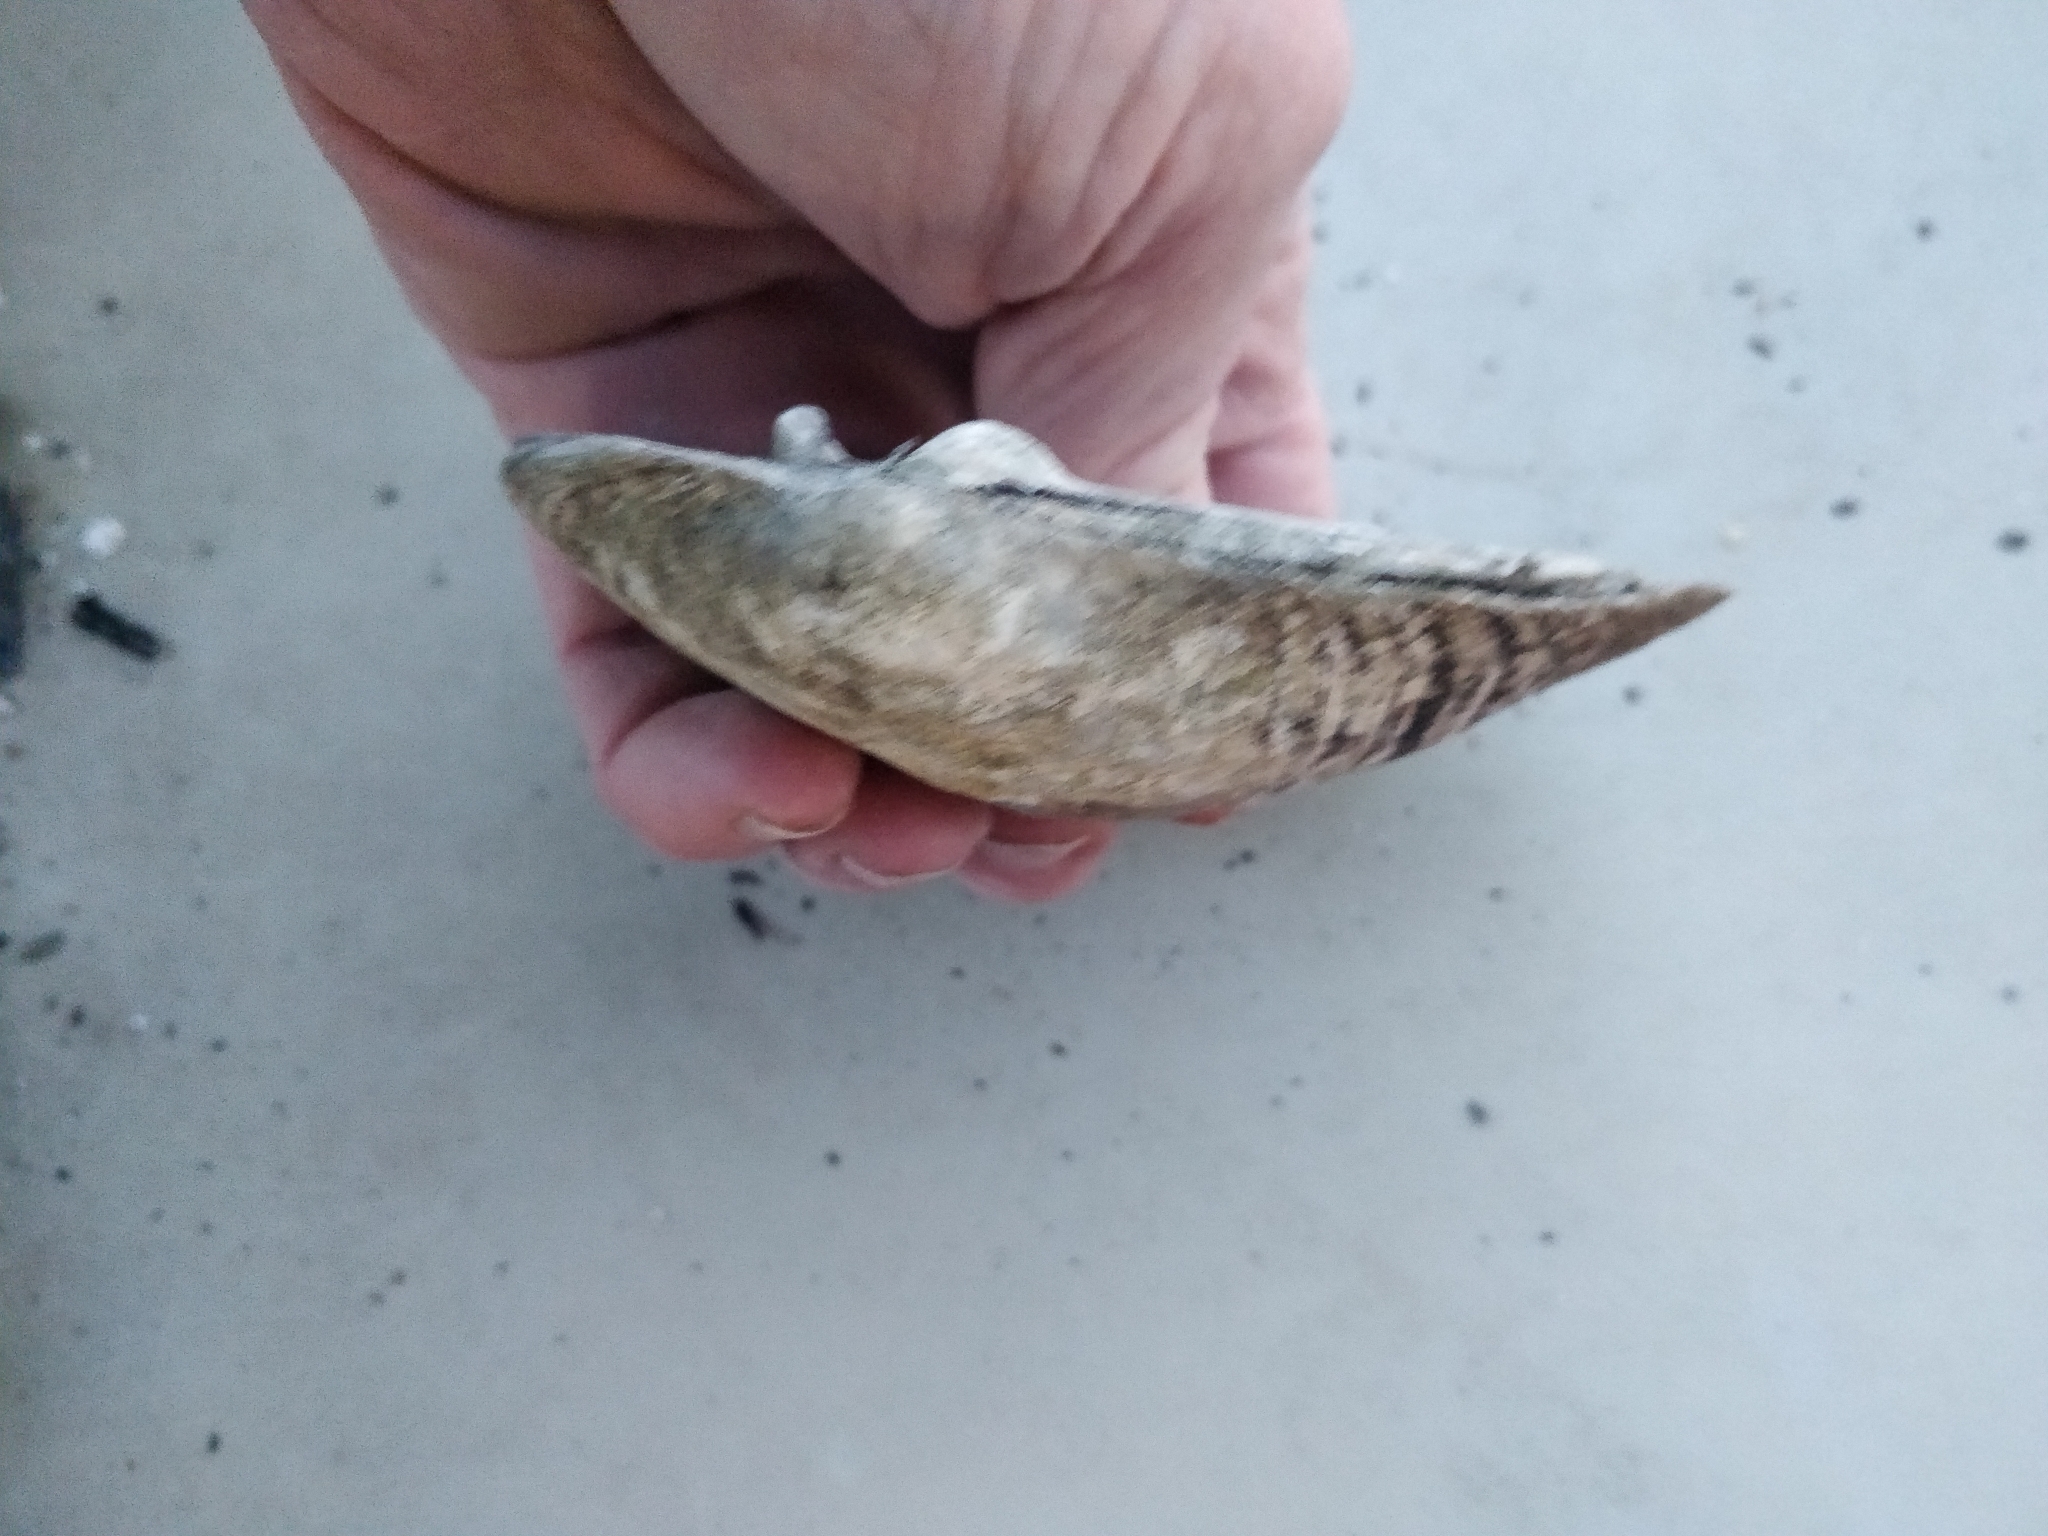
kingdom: Animalia
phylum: Mollusca
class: Bivalvia
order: Unionida
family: Unionidae
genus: Amblema
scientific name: Amblema plicata
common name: Threeridge
